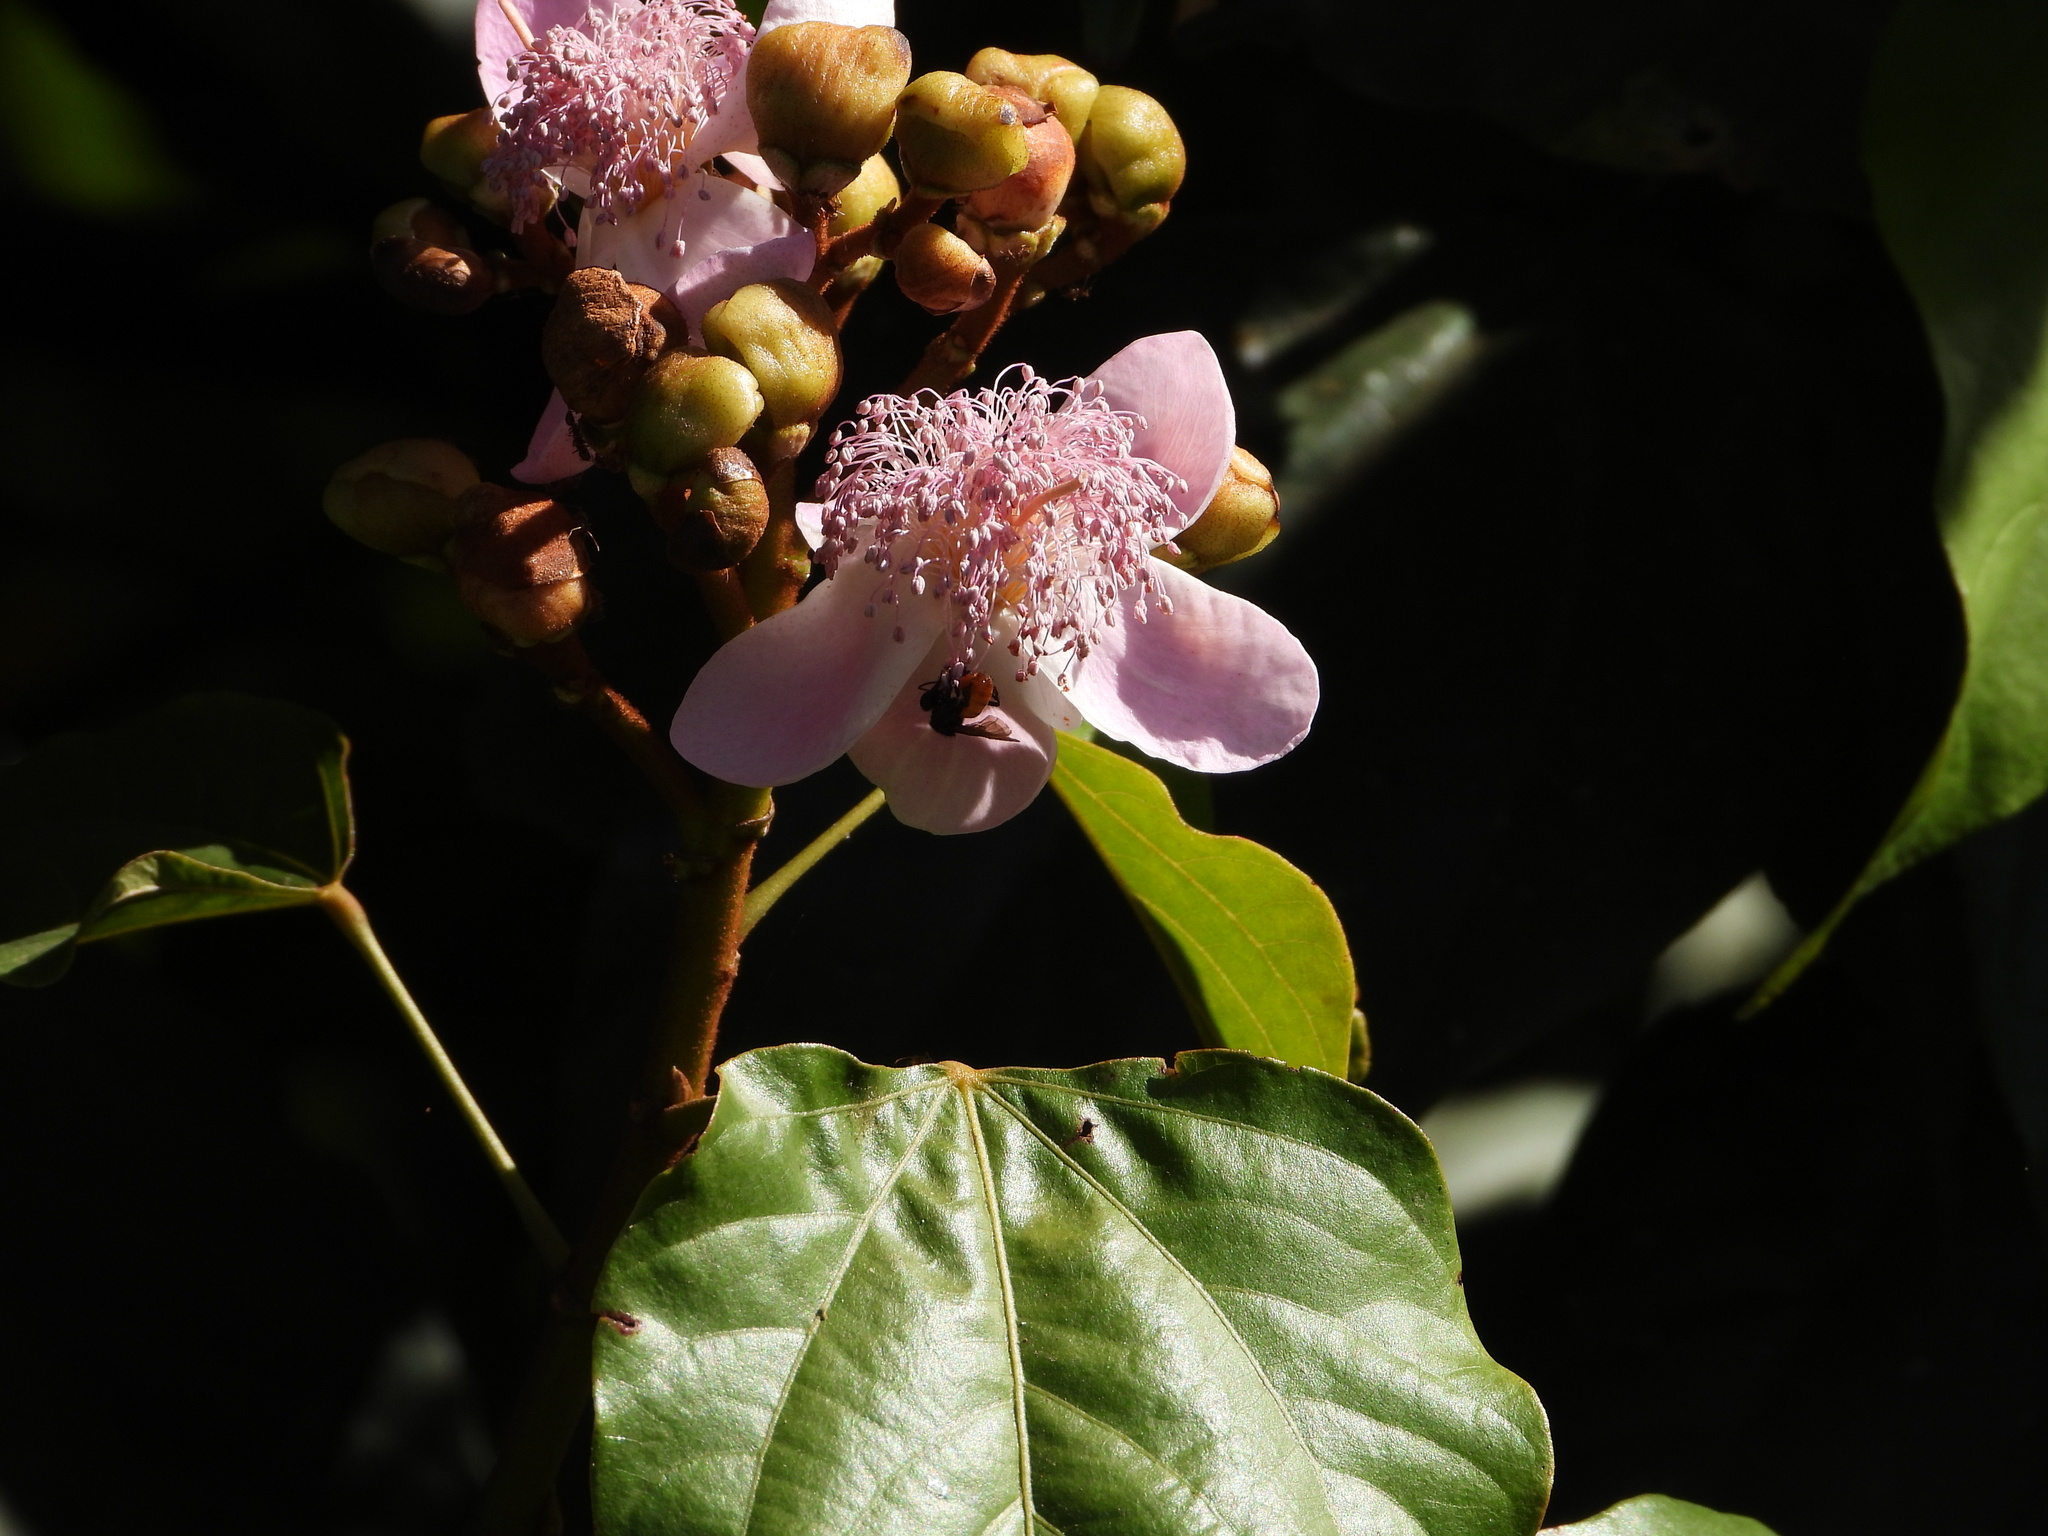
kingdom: Plantae
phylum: Tracheophyta
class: Magnoliopsida
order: Malvales
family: Bixaceae
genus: Bixa
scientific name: Bixa orellana
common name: Lipsticktree
